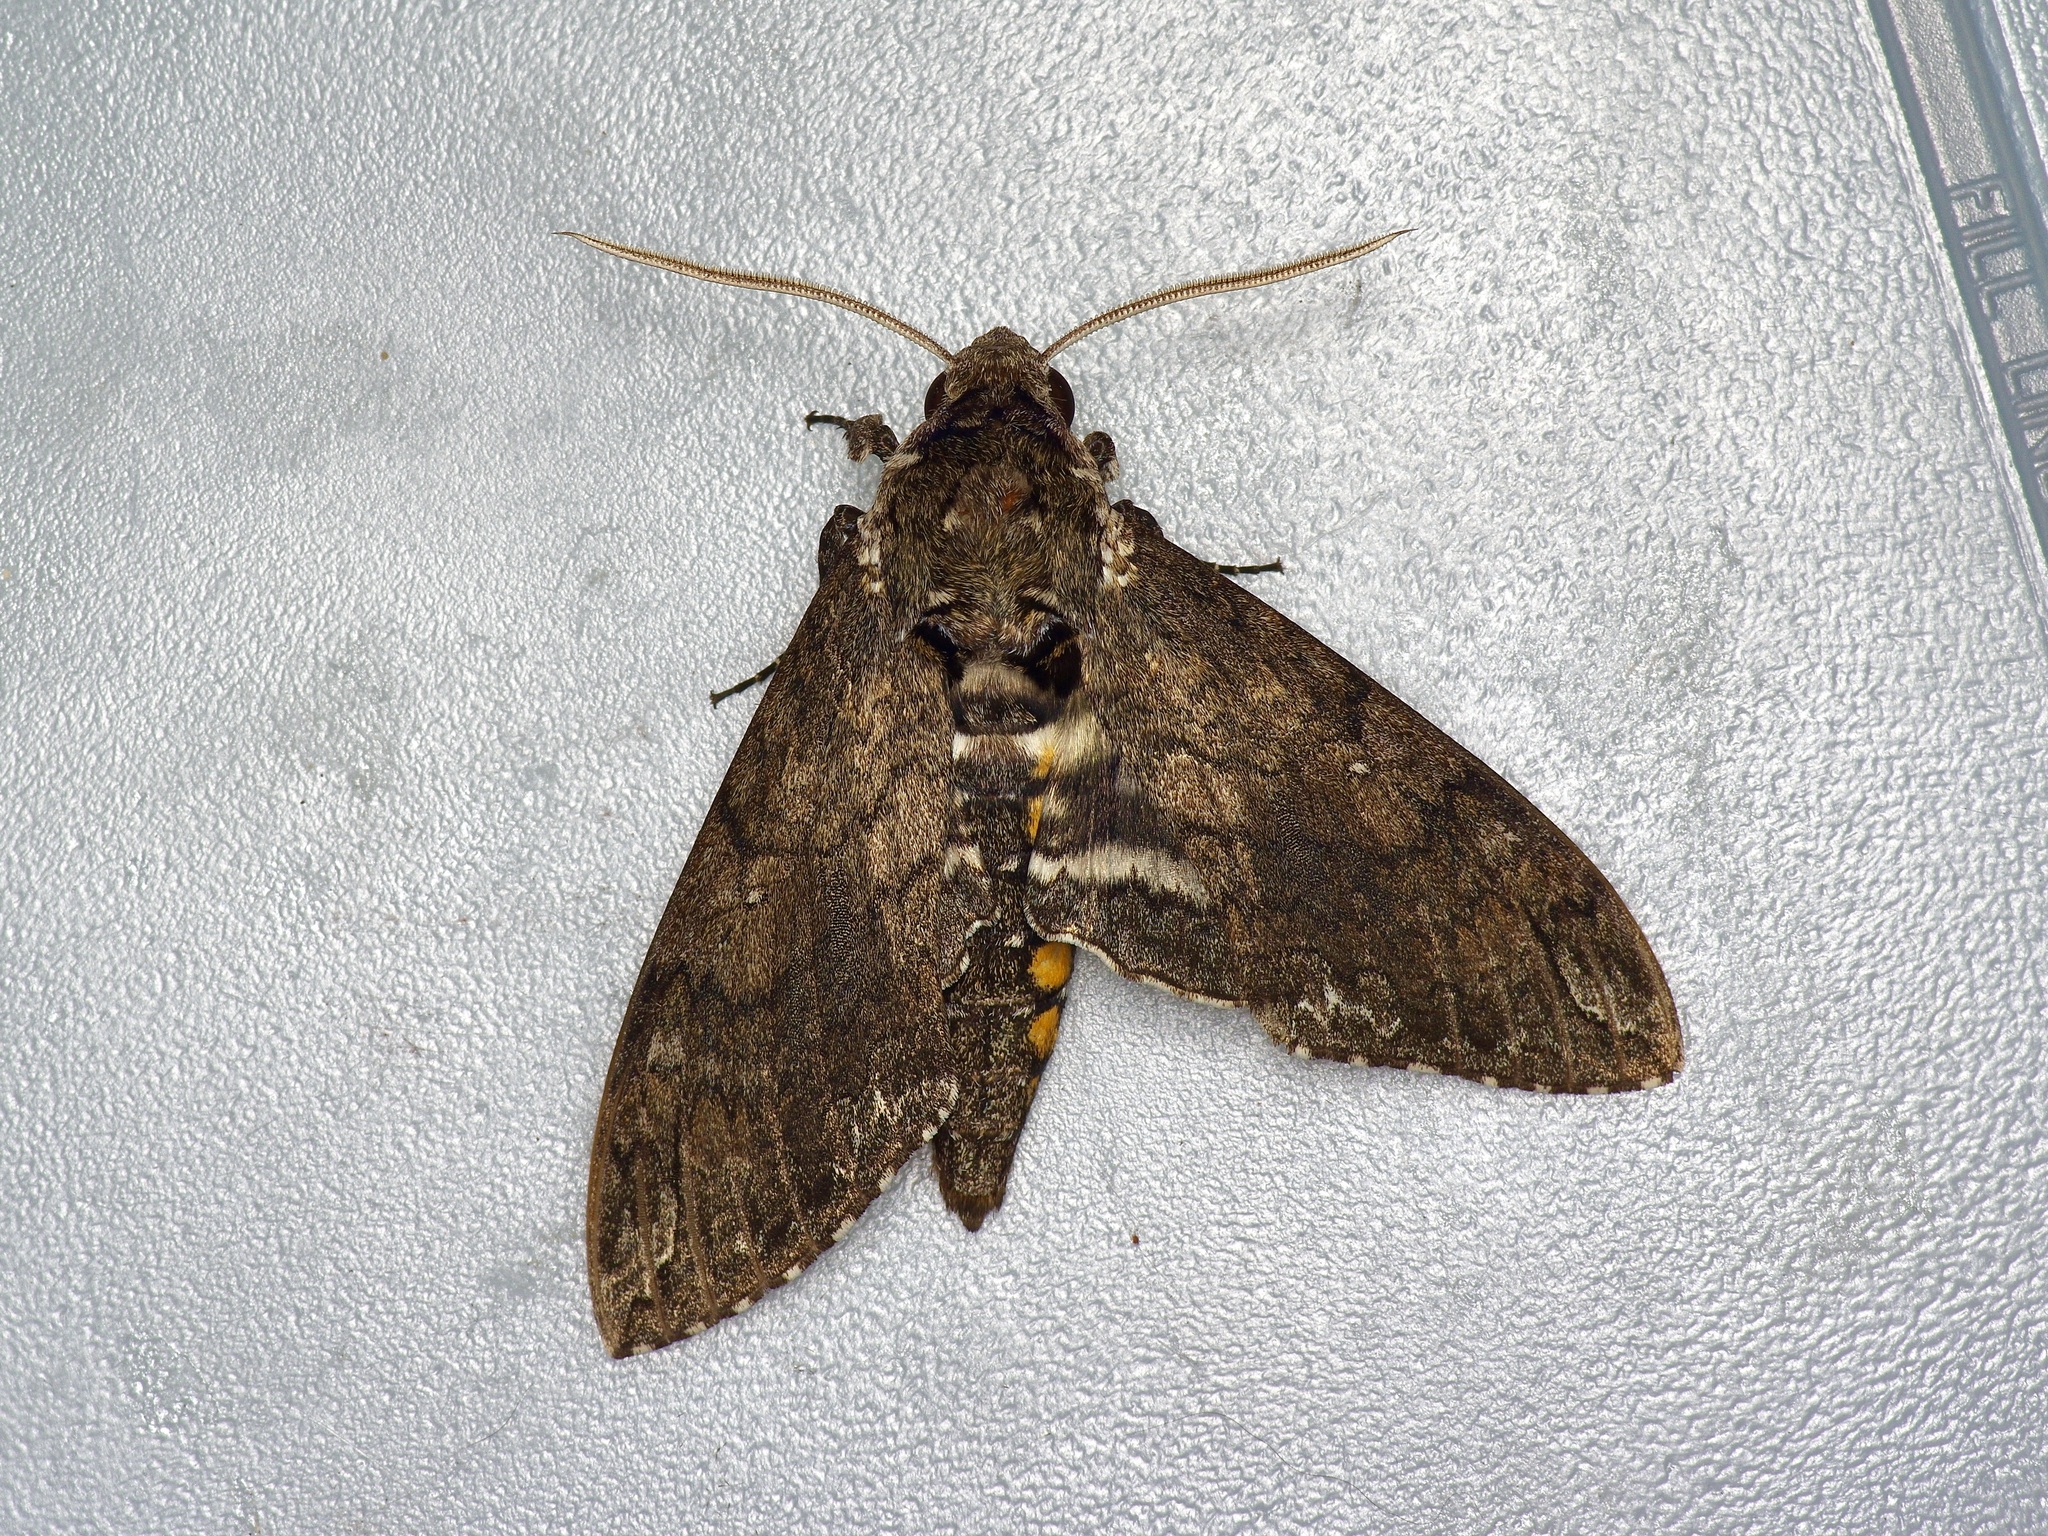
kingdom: Animalia
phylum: Arthropoda
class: Insecta
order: Lepidoptera
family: Sphingidae
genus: Manduca
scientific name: Manduca sexta
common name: Carolina sphinx
